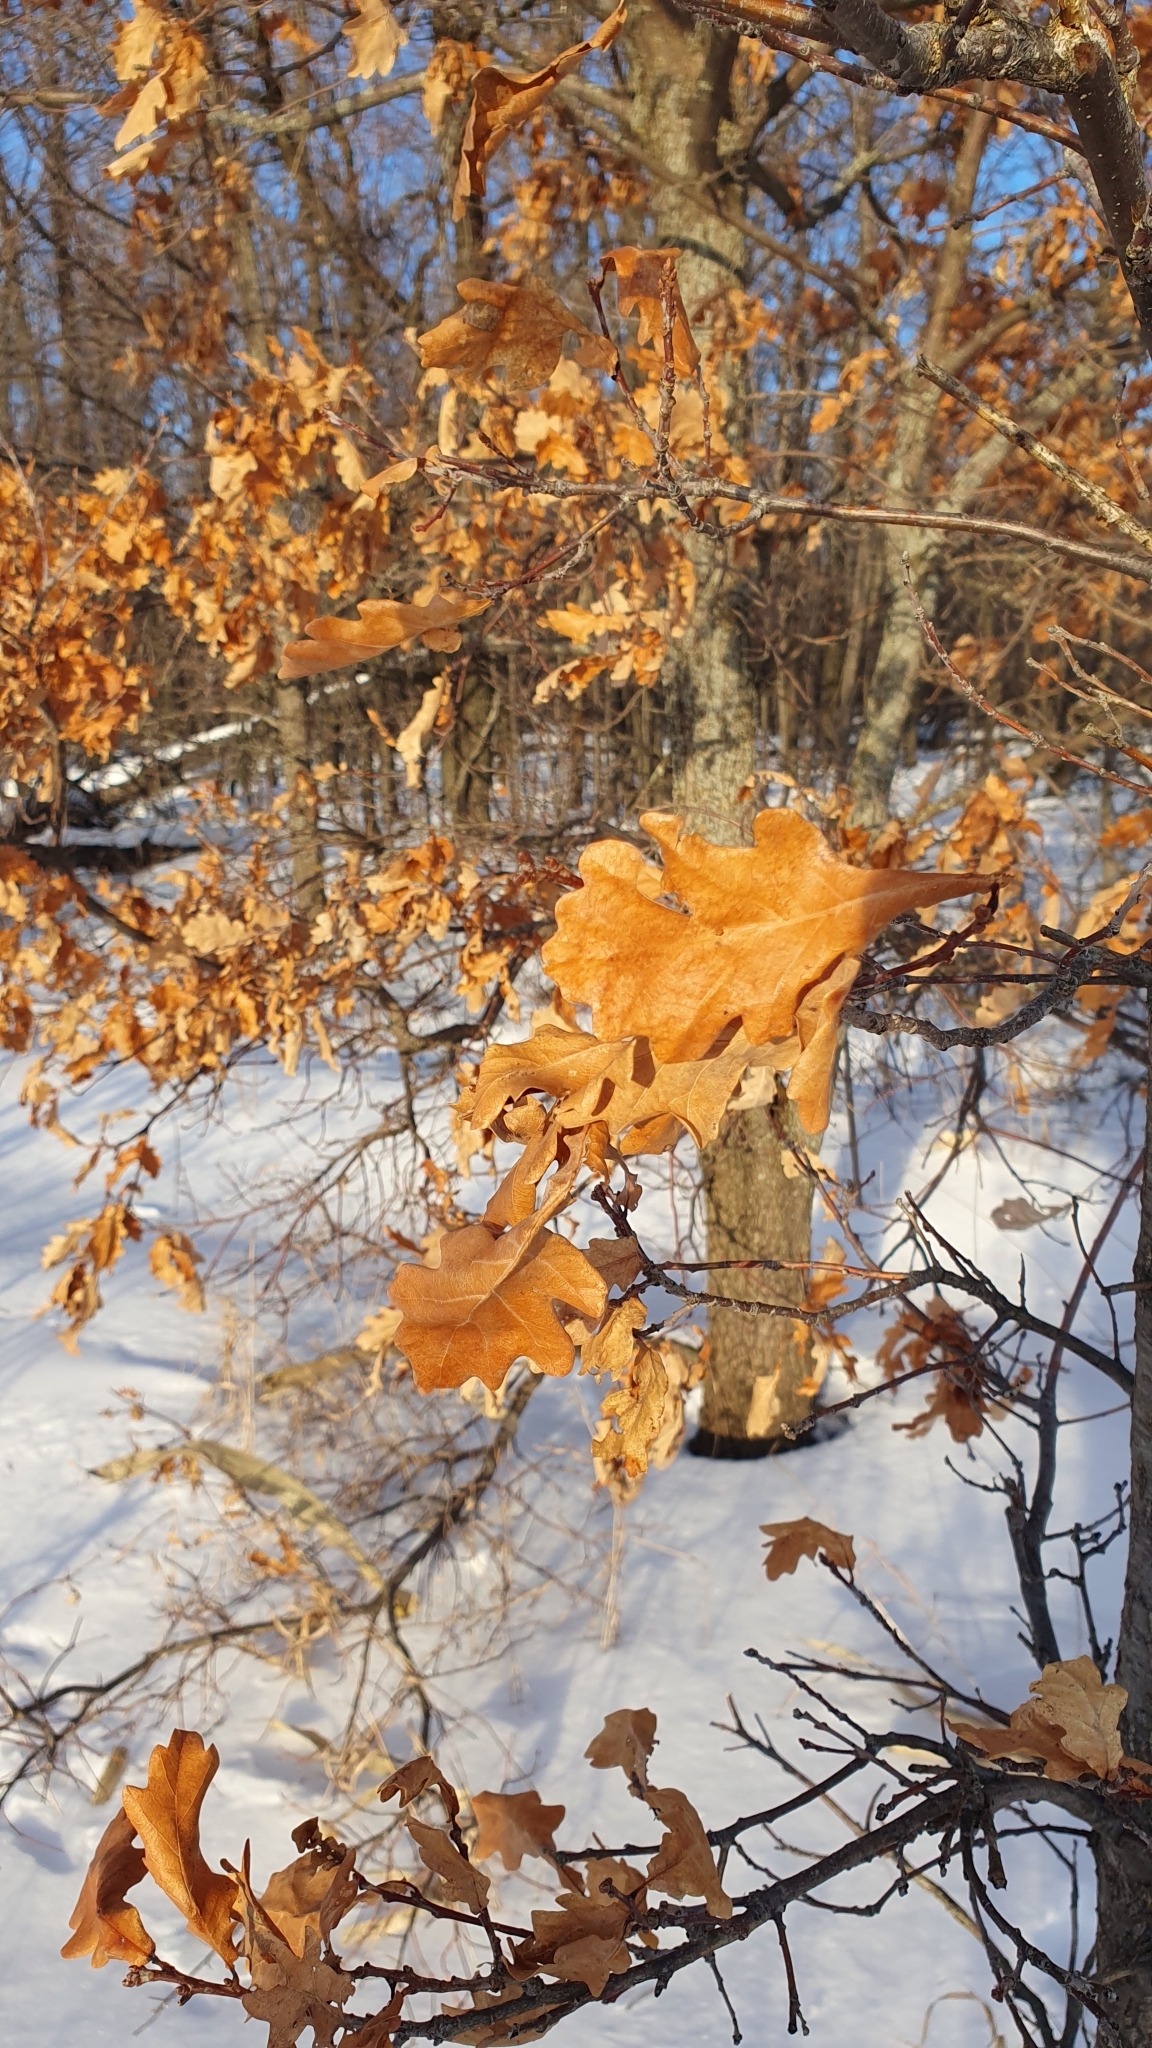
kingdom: Plantae
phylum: Tracheophyta
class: Magnoliopsida
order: Fagales
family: Fagaceae
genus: Quercus
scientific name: Quercus robur
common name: Pedunculate oak
